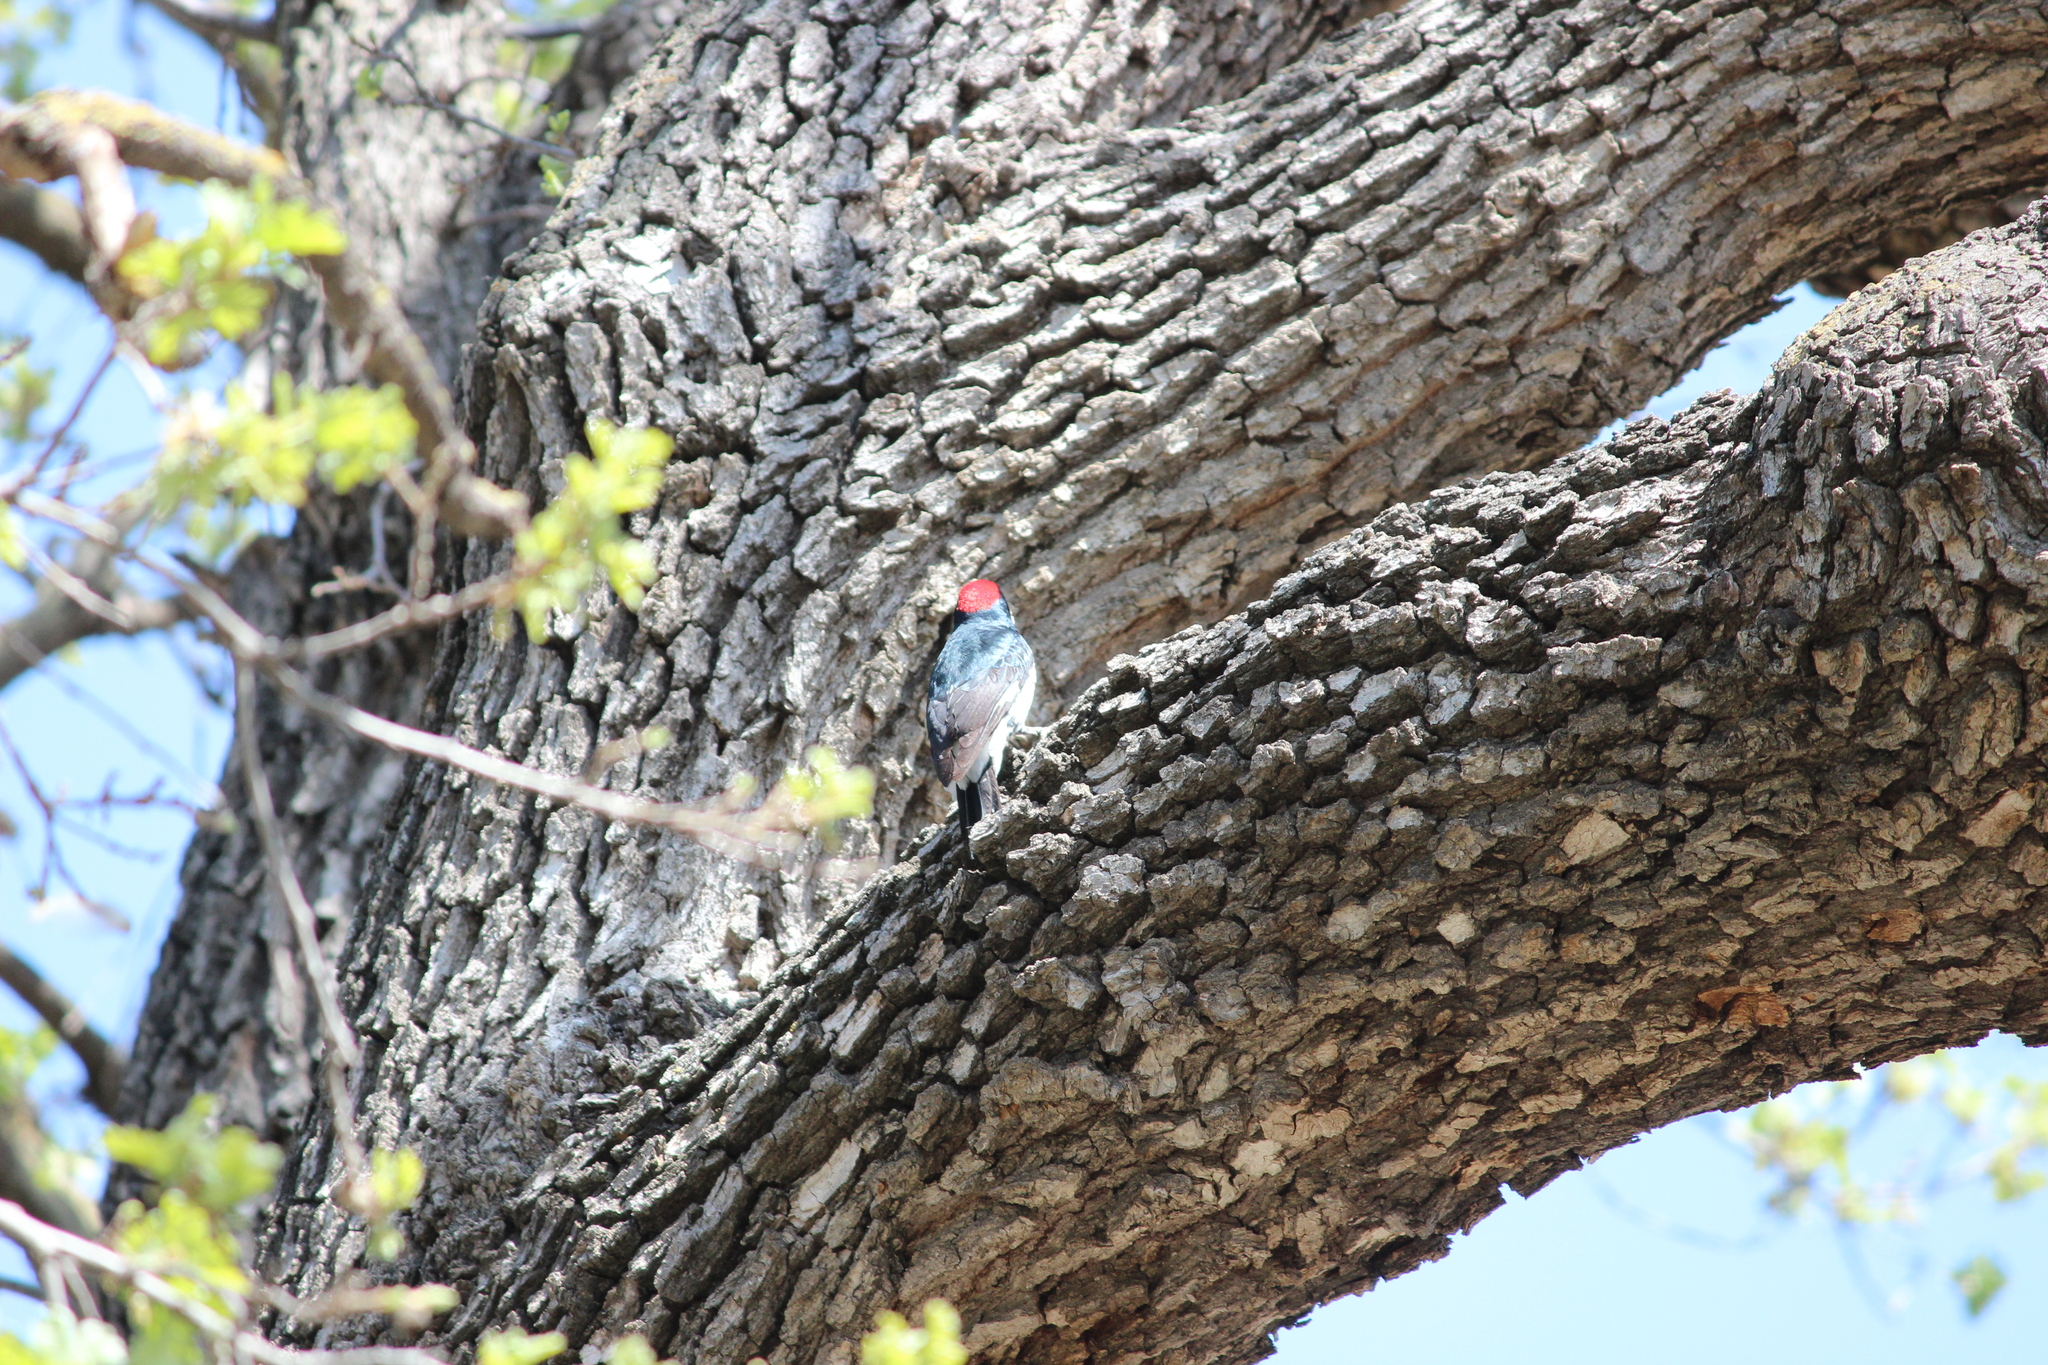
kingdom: Animalia
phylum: Chordata
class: Aves
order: Piciformes
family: Picidae
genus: Melanerpes
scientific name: Melanerpes formicivorus
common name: Acorn woodpecker
